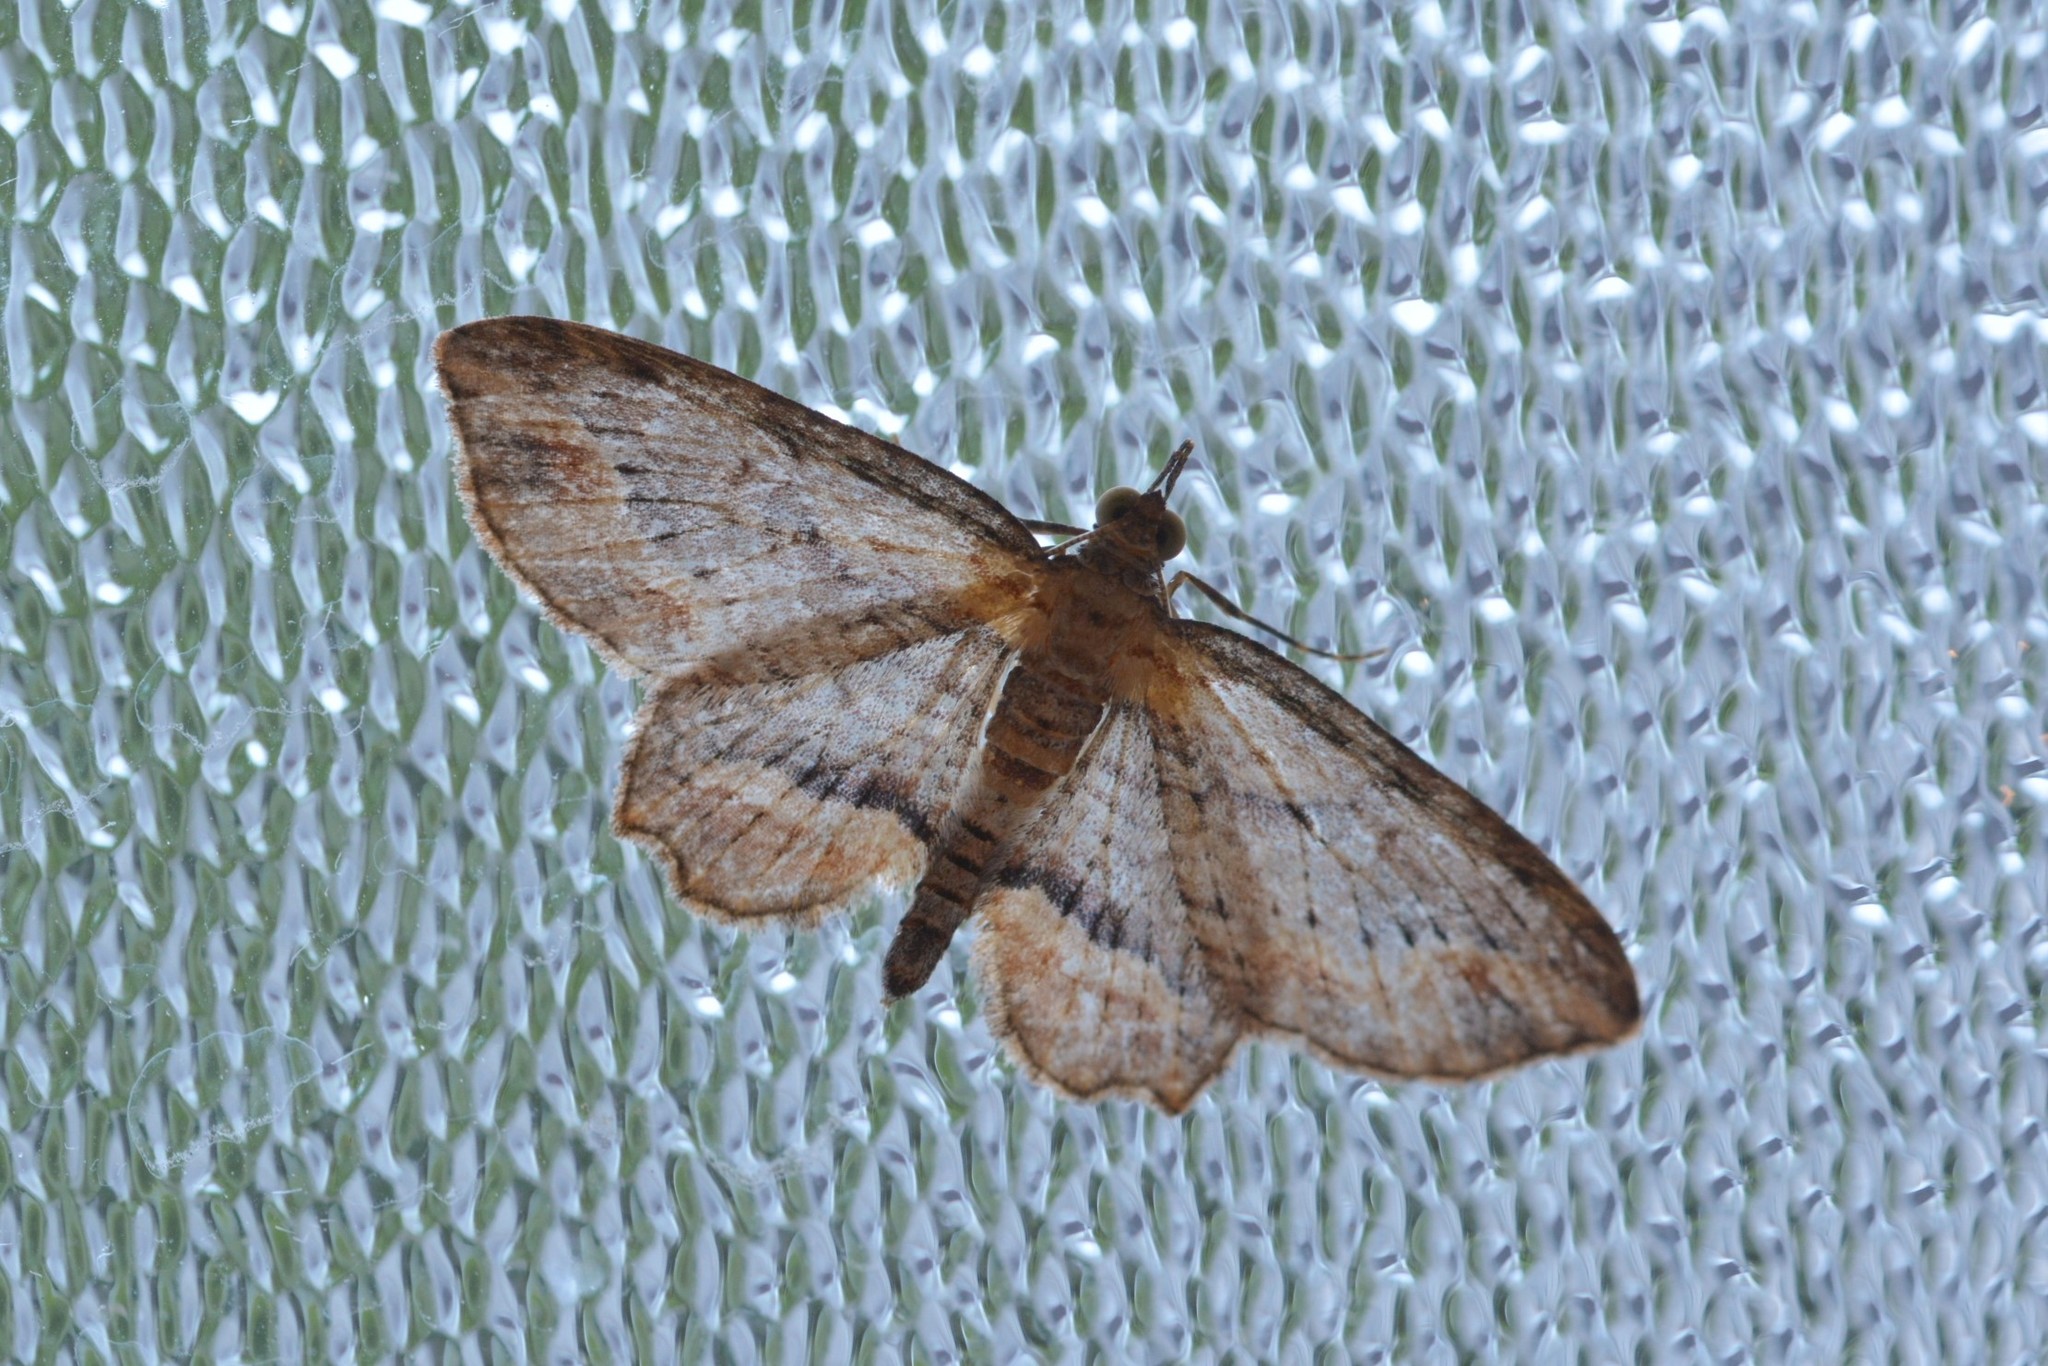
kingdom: Animalia
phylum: Arthropoda
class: Insecta
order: Lepidoptera
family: Geometridae
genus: Chloroclystis
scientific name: Chloroclystis filata
